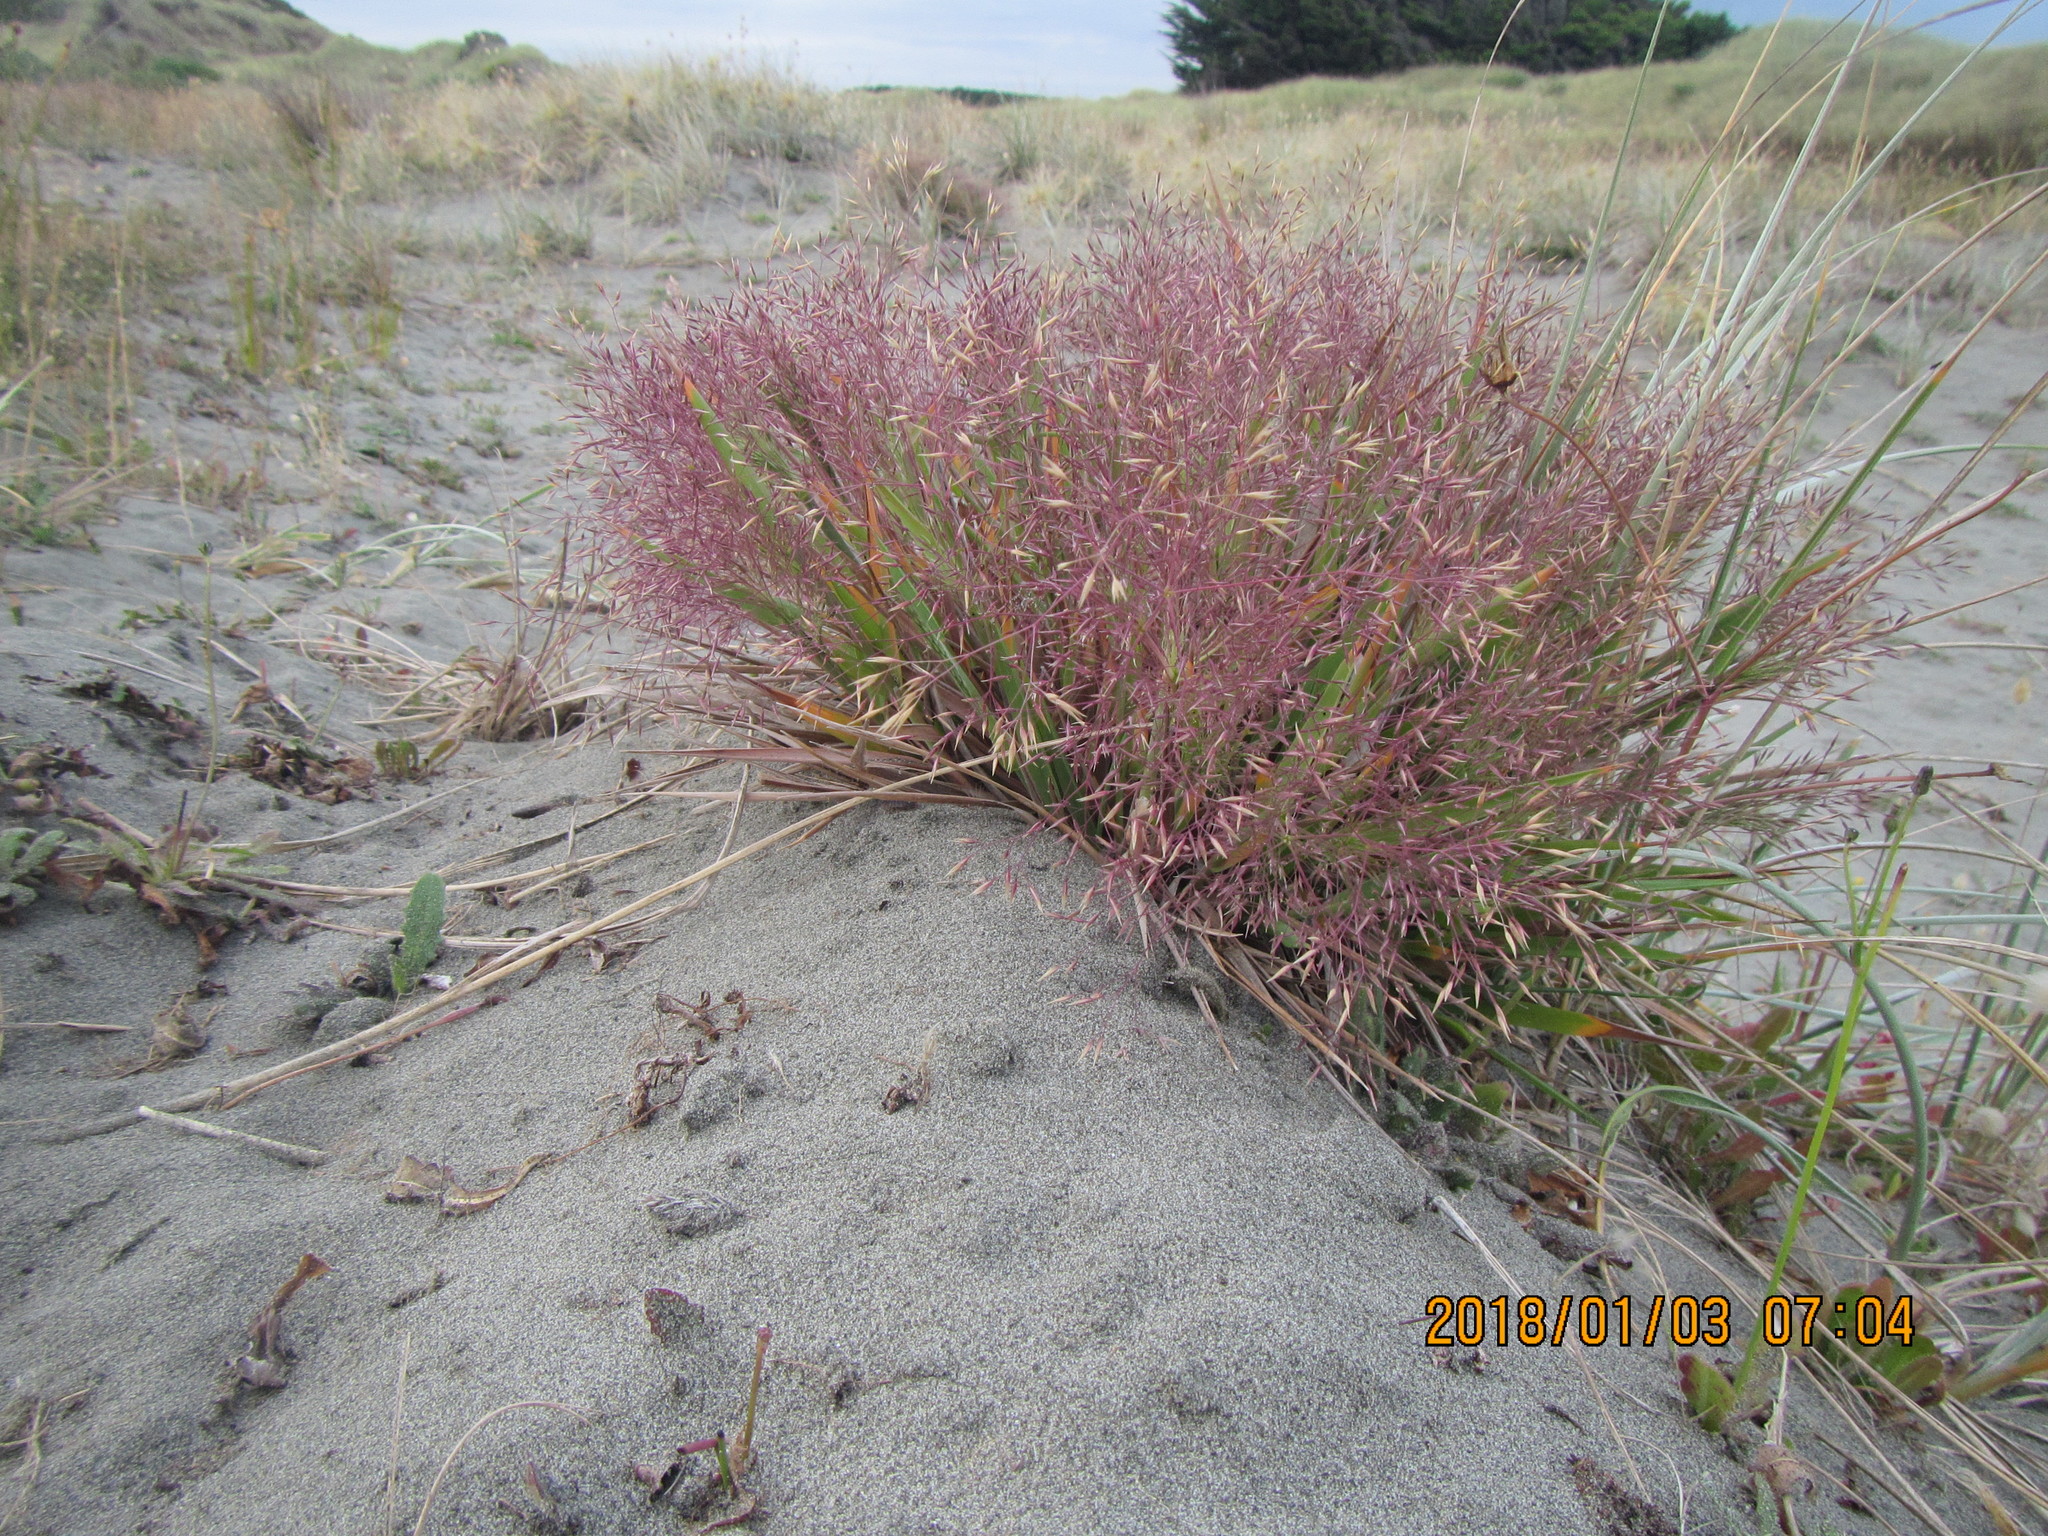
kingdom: Plantae
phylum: Tracheophyta
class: Liliopsida
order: Poales
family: Poaceae
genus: Lachnagrostis
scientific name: Lachnagrostis billardierei
